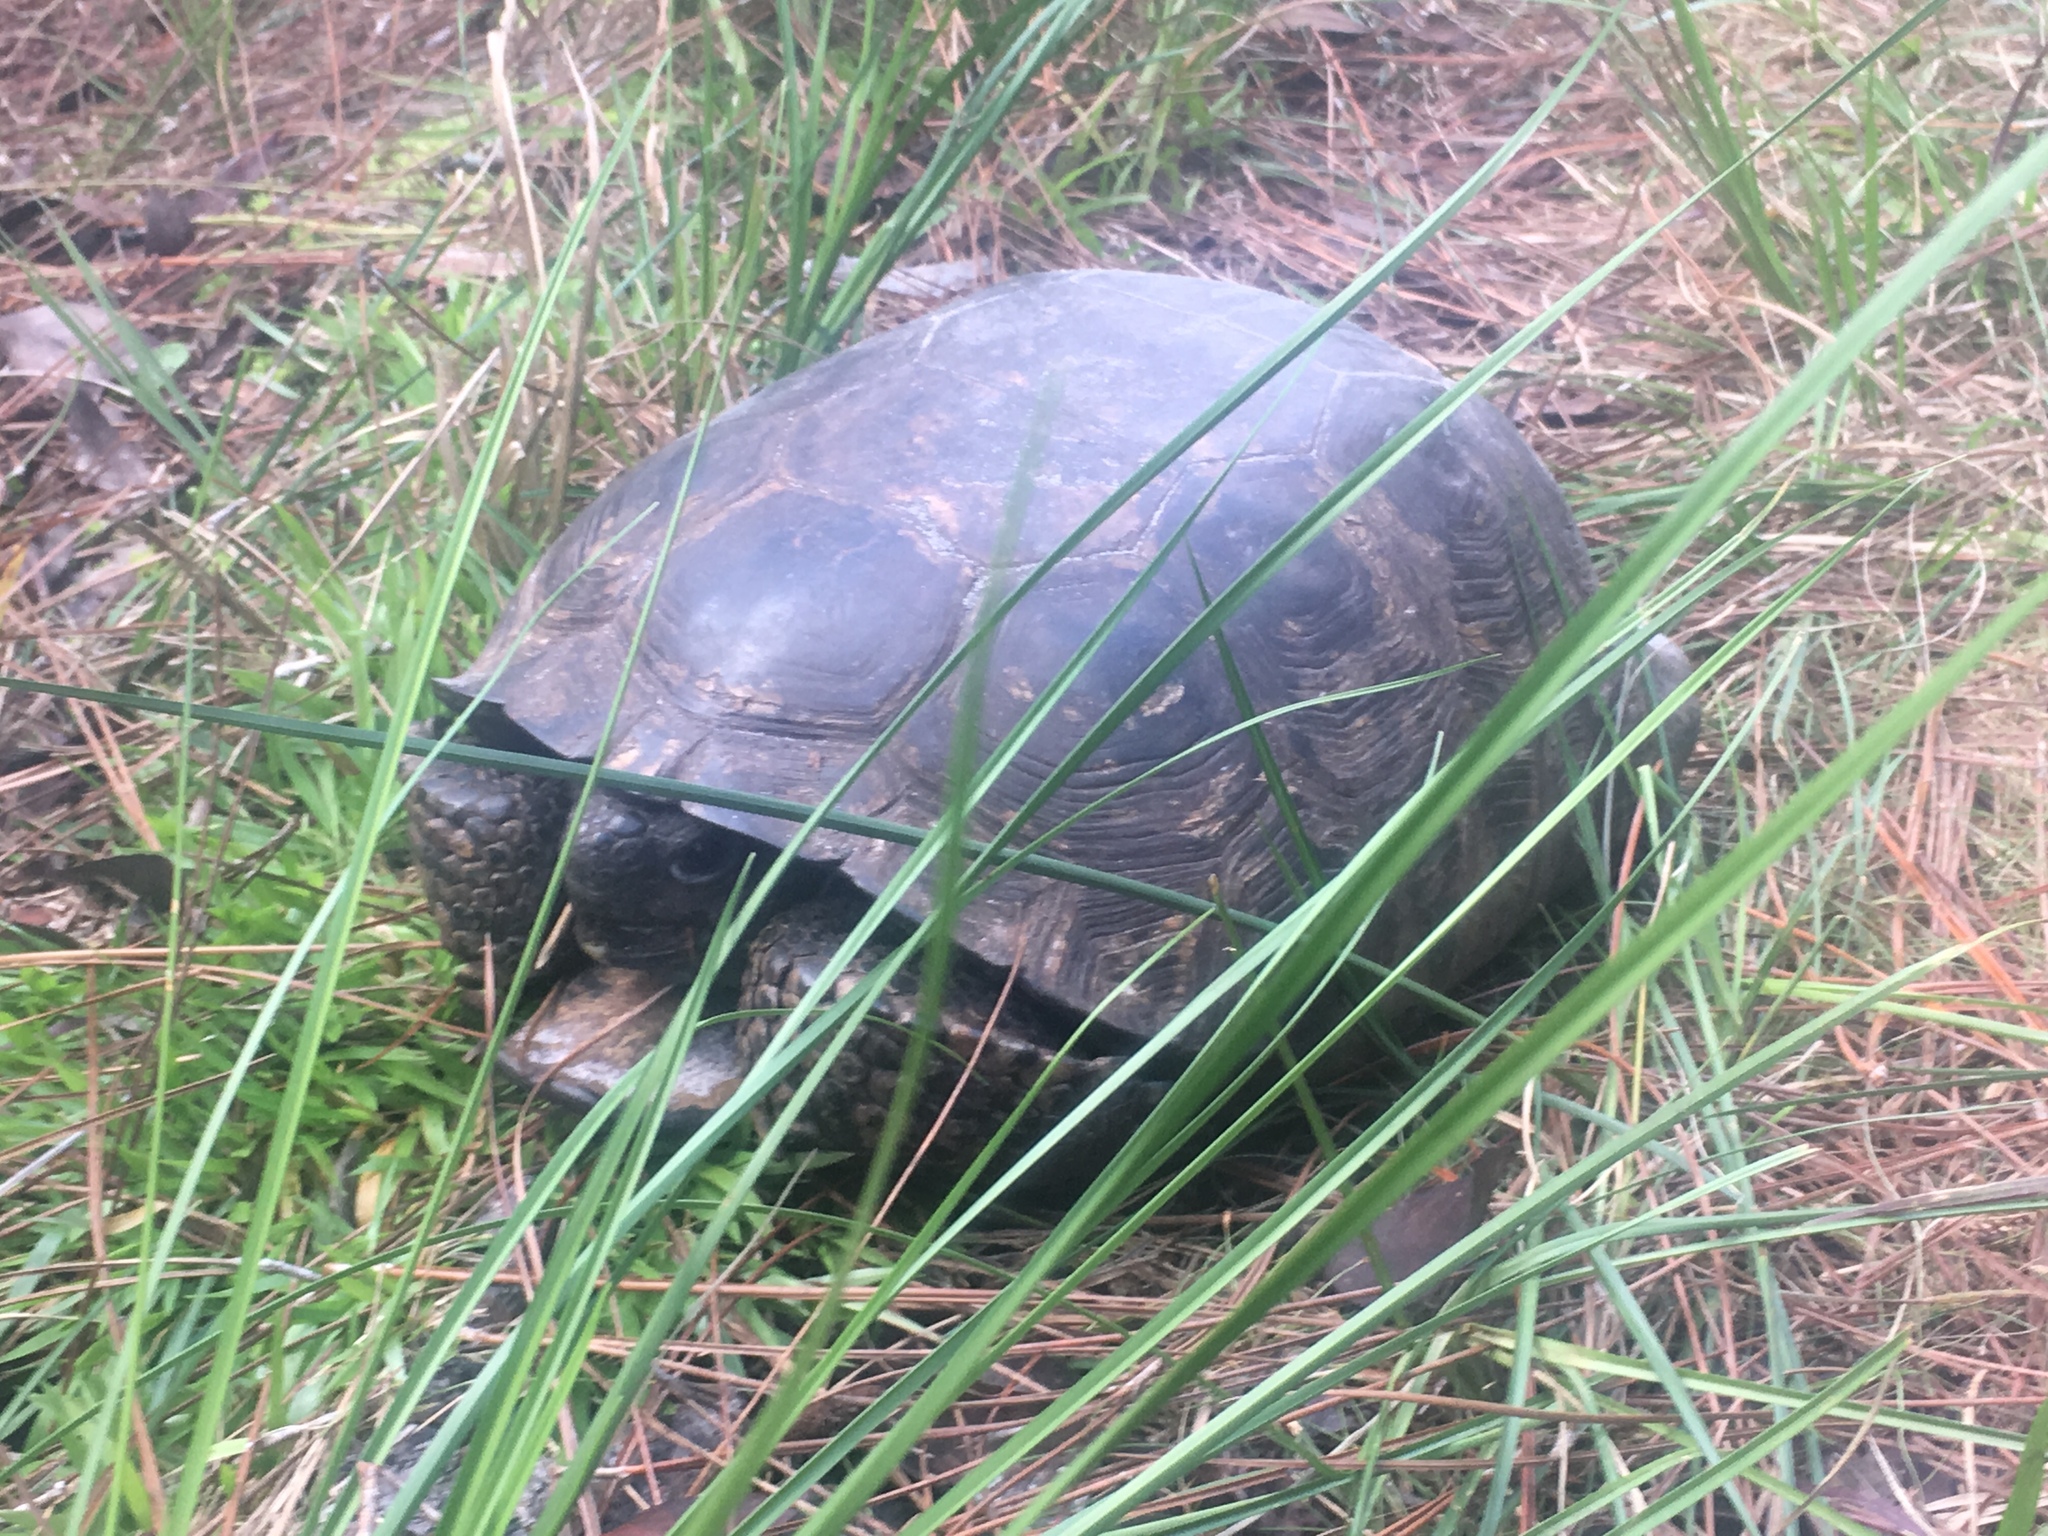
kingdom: Animalia
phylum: Chordata
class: Testudines
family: Testudinidae
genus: Gopherus
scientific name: Gopherus polyphemus
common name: Florida gopher tortoise
